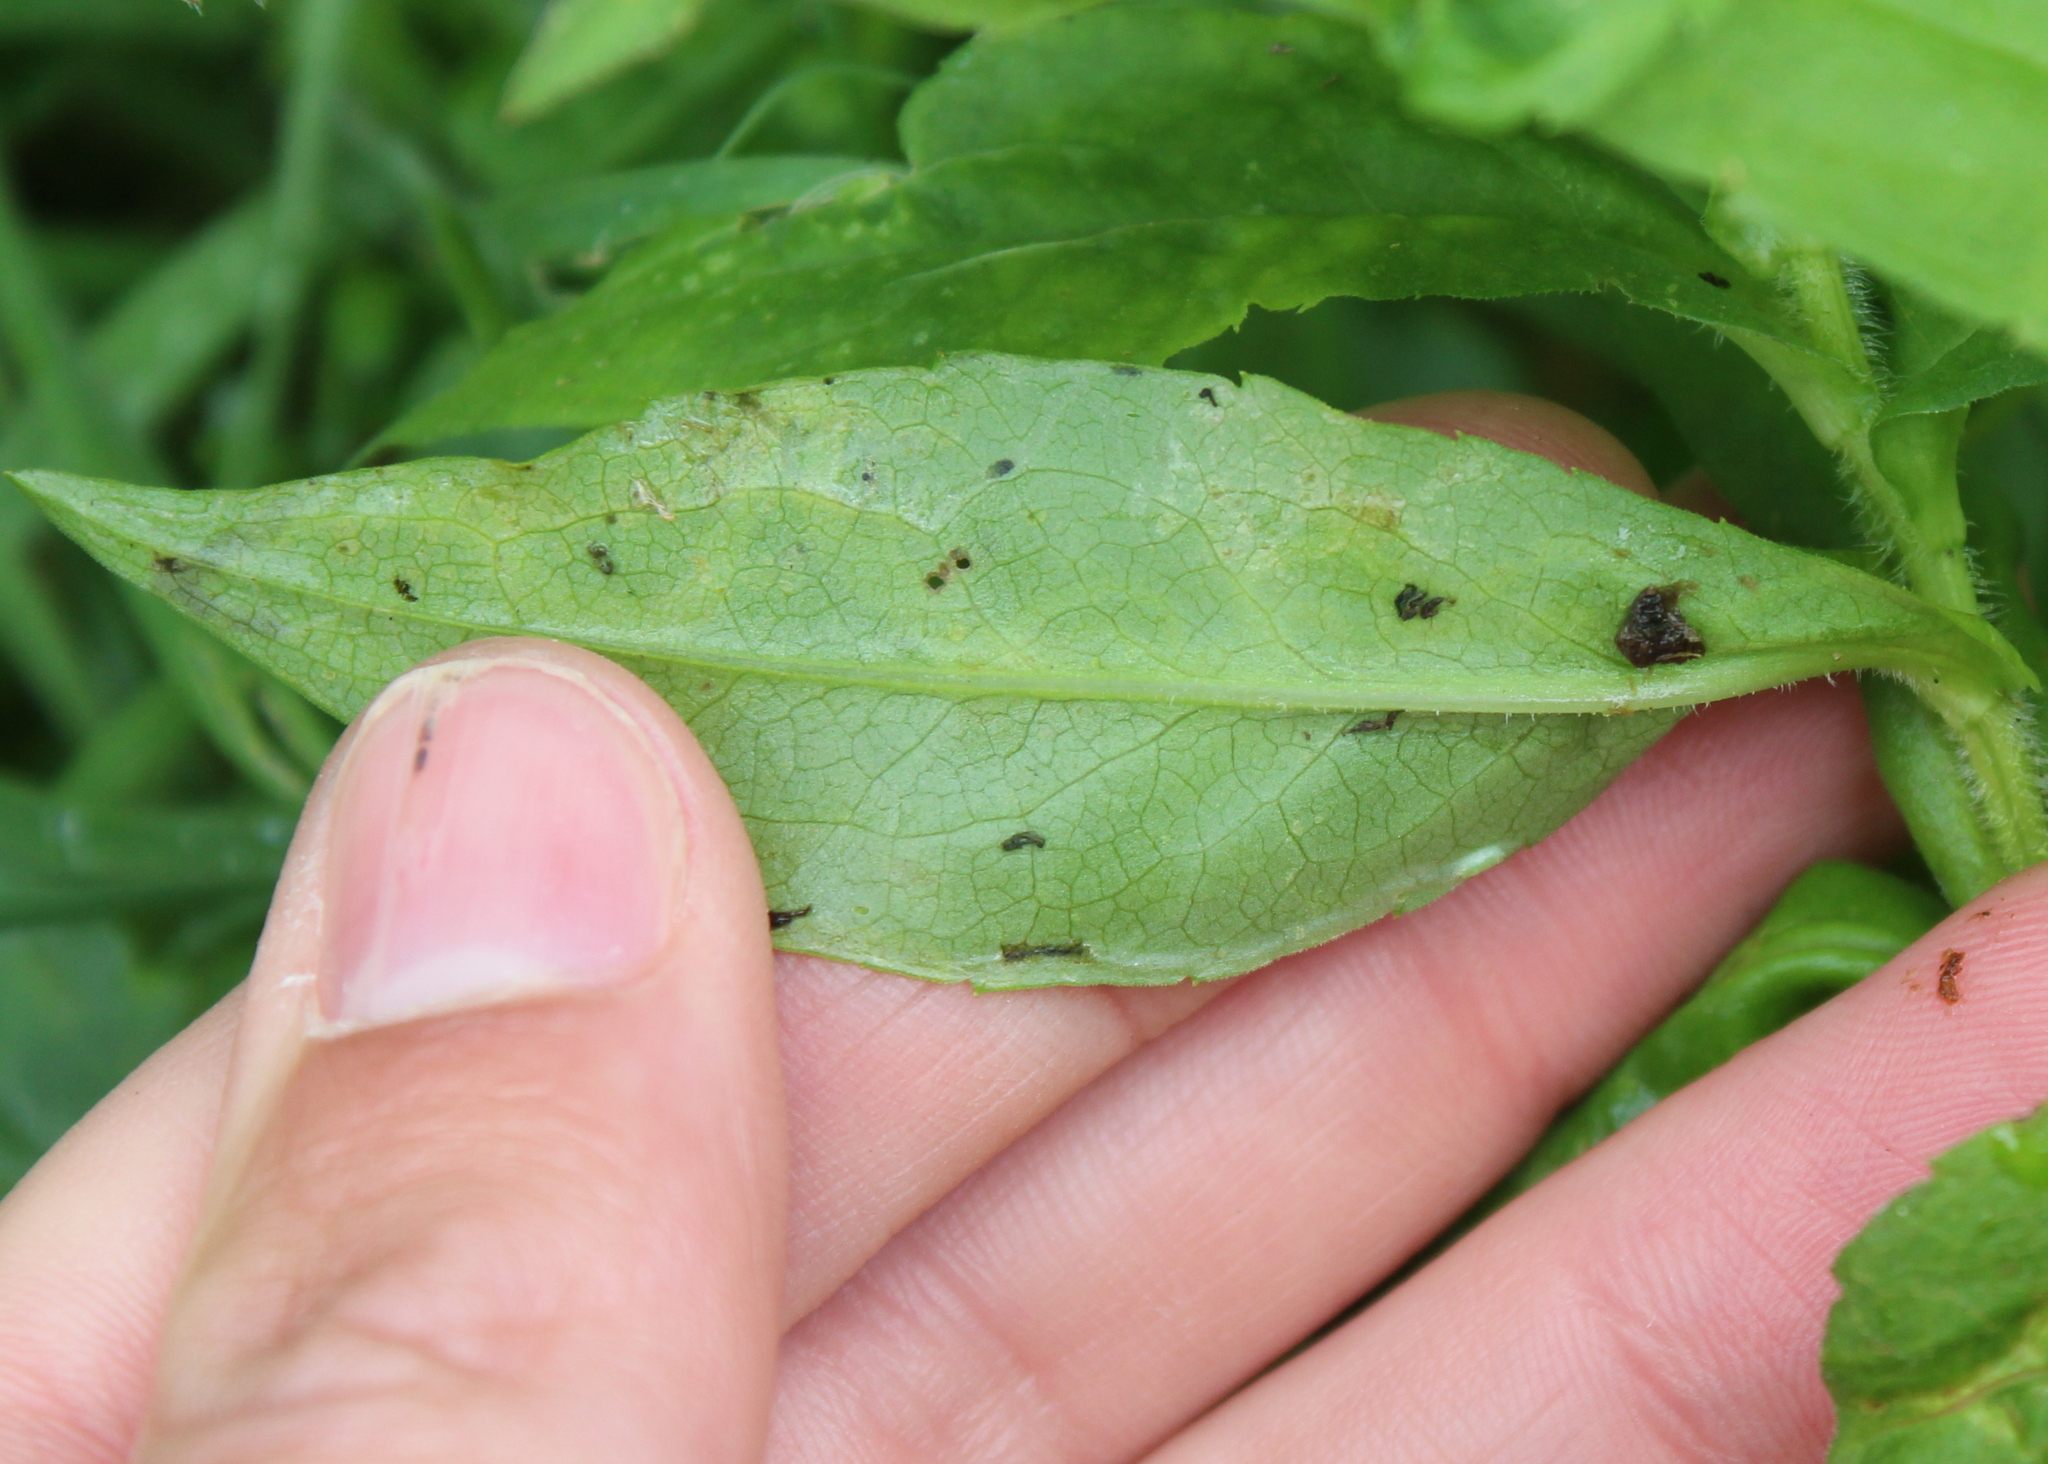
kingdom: Animalia
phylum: Arthropoda
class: Insecta
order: Diptera
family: Agromyzidae
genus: Ophiomyia
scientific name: Ophiomyia parda
